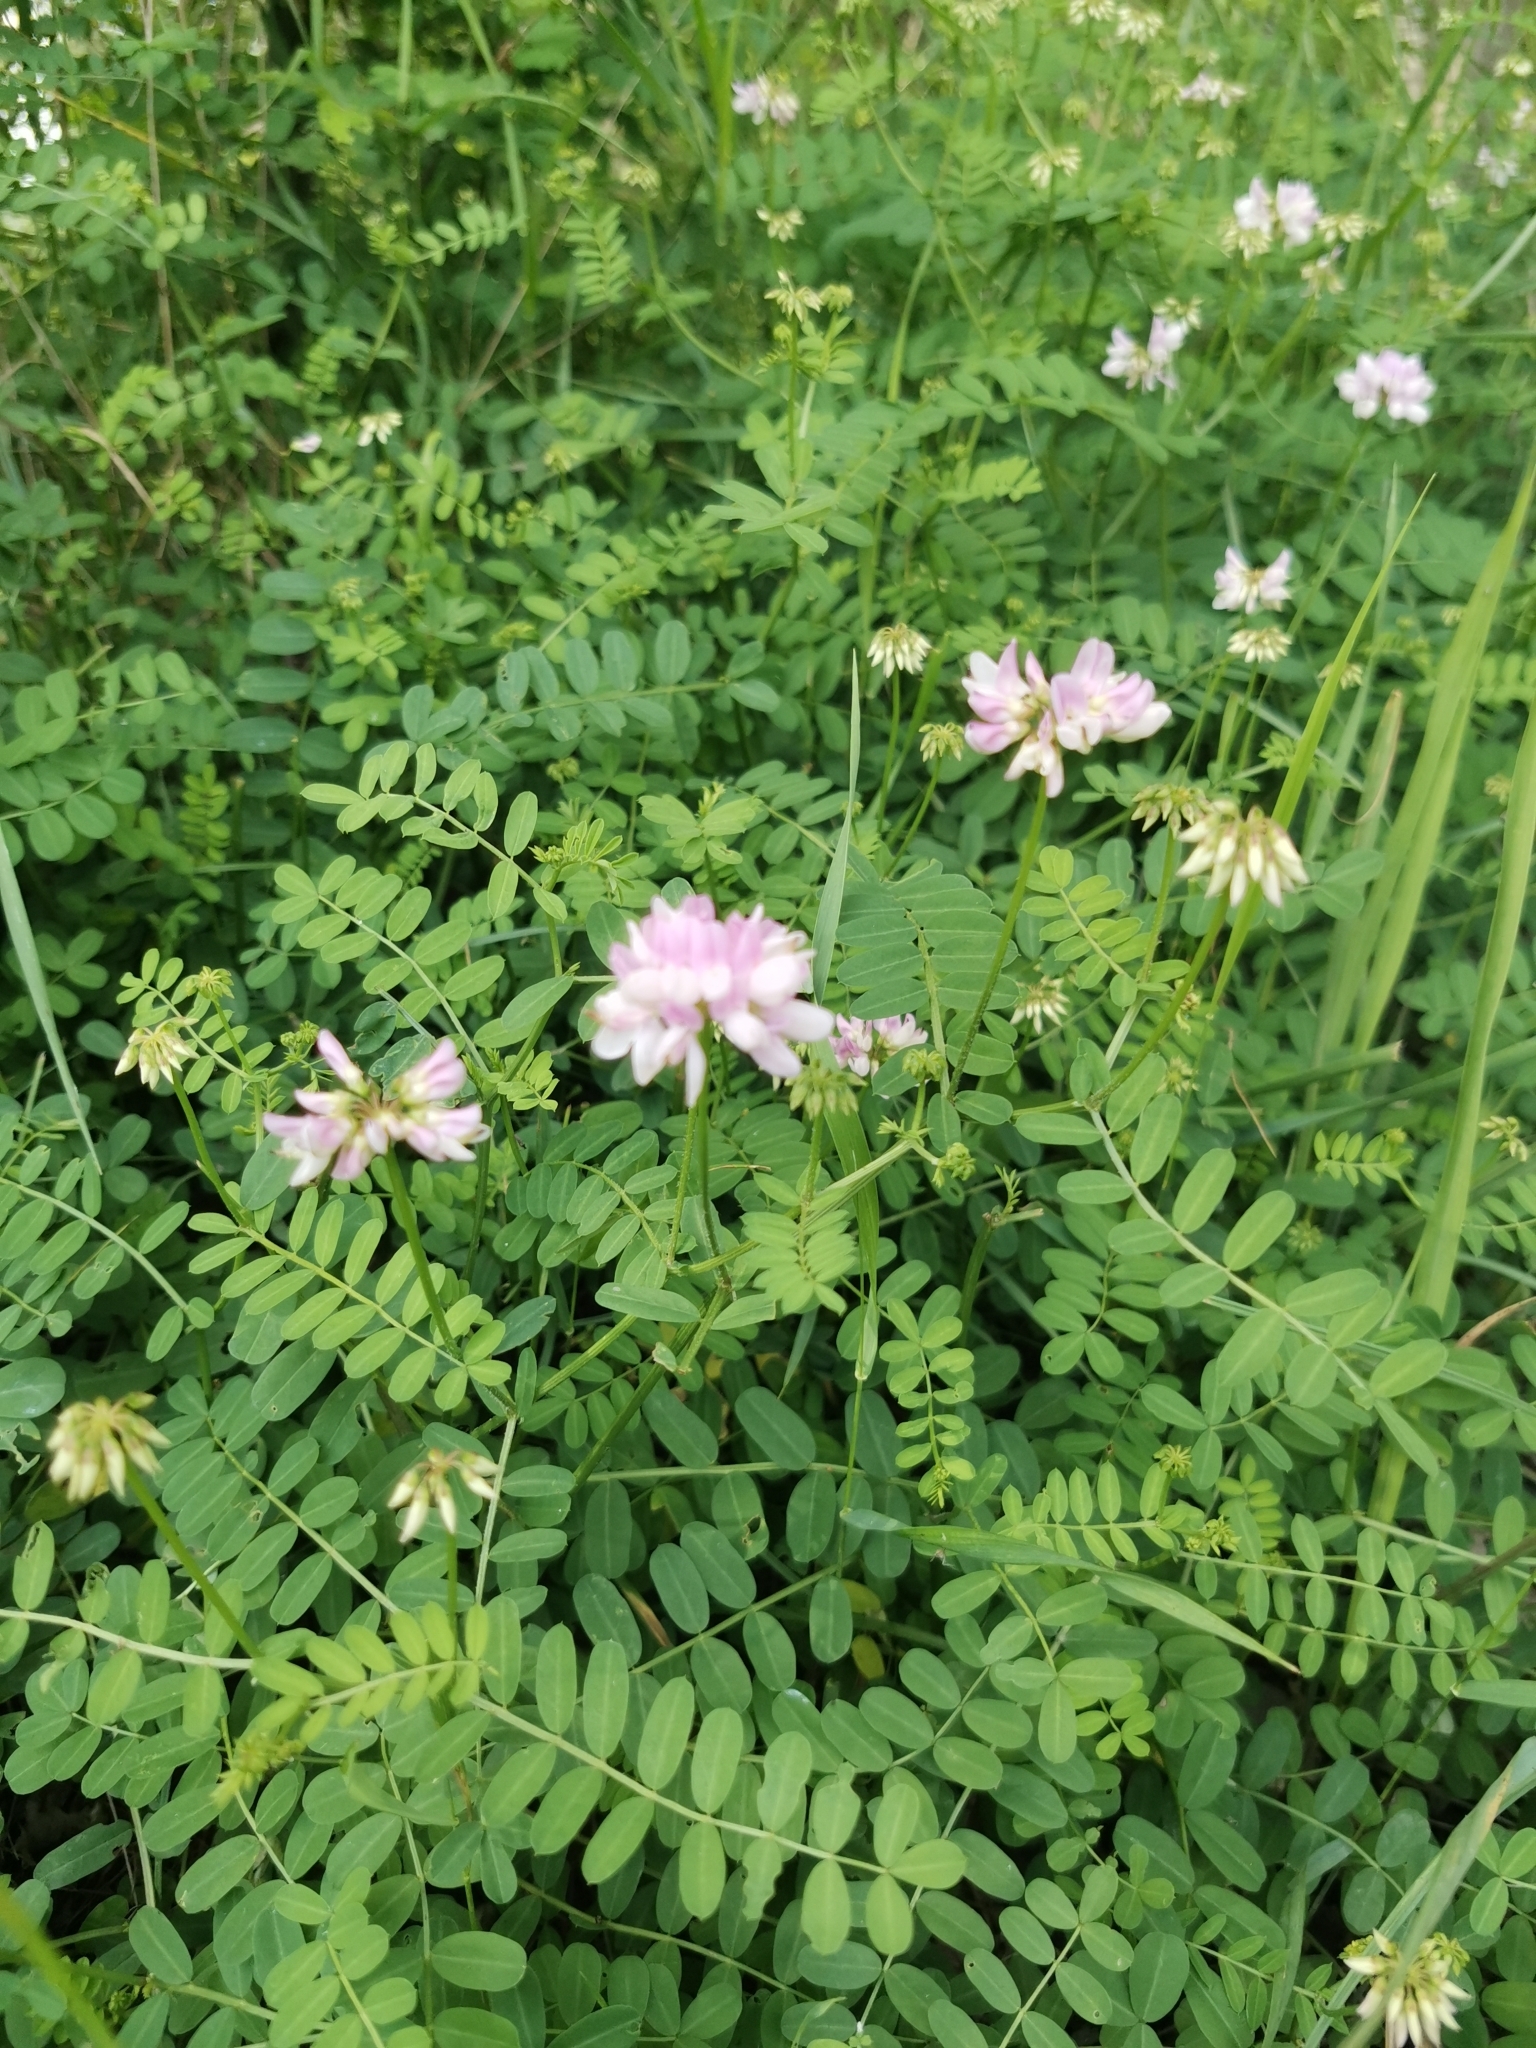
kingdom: Plantae
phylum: Tracheophyta
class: Magnoliopsida
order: Fabales
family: Fabaceae
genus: Coronilla
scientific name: Coronilla varia
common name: Crownvetch
